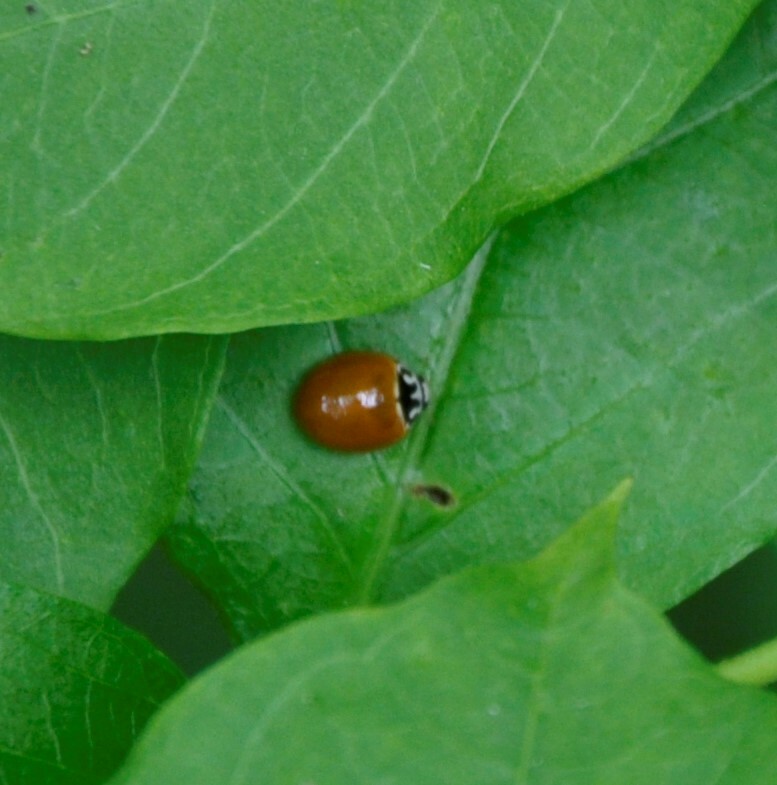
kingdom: Animalia
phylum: Arthropoda
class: Insecta
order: Coleoptera
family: Coccinellidae
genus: Cycloneda
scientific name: Cycloneda munda
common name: Polished lady beetle
